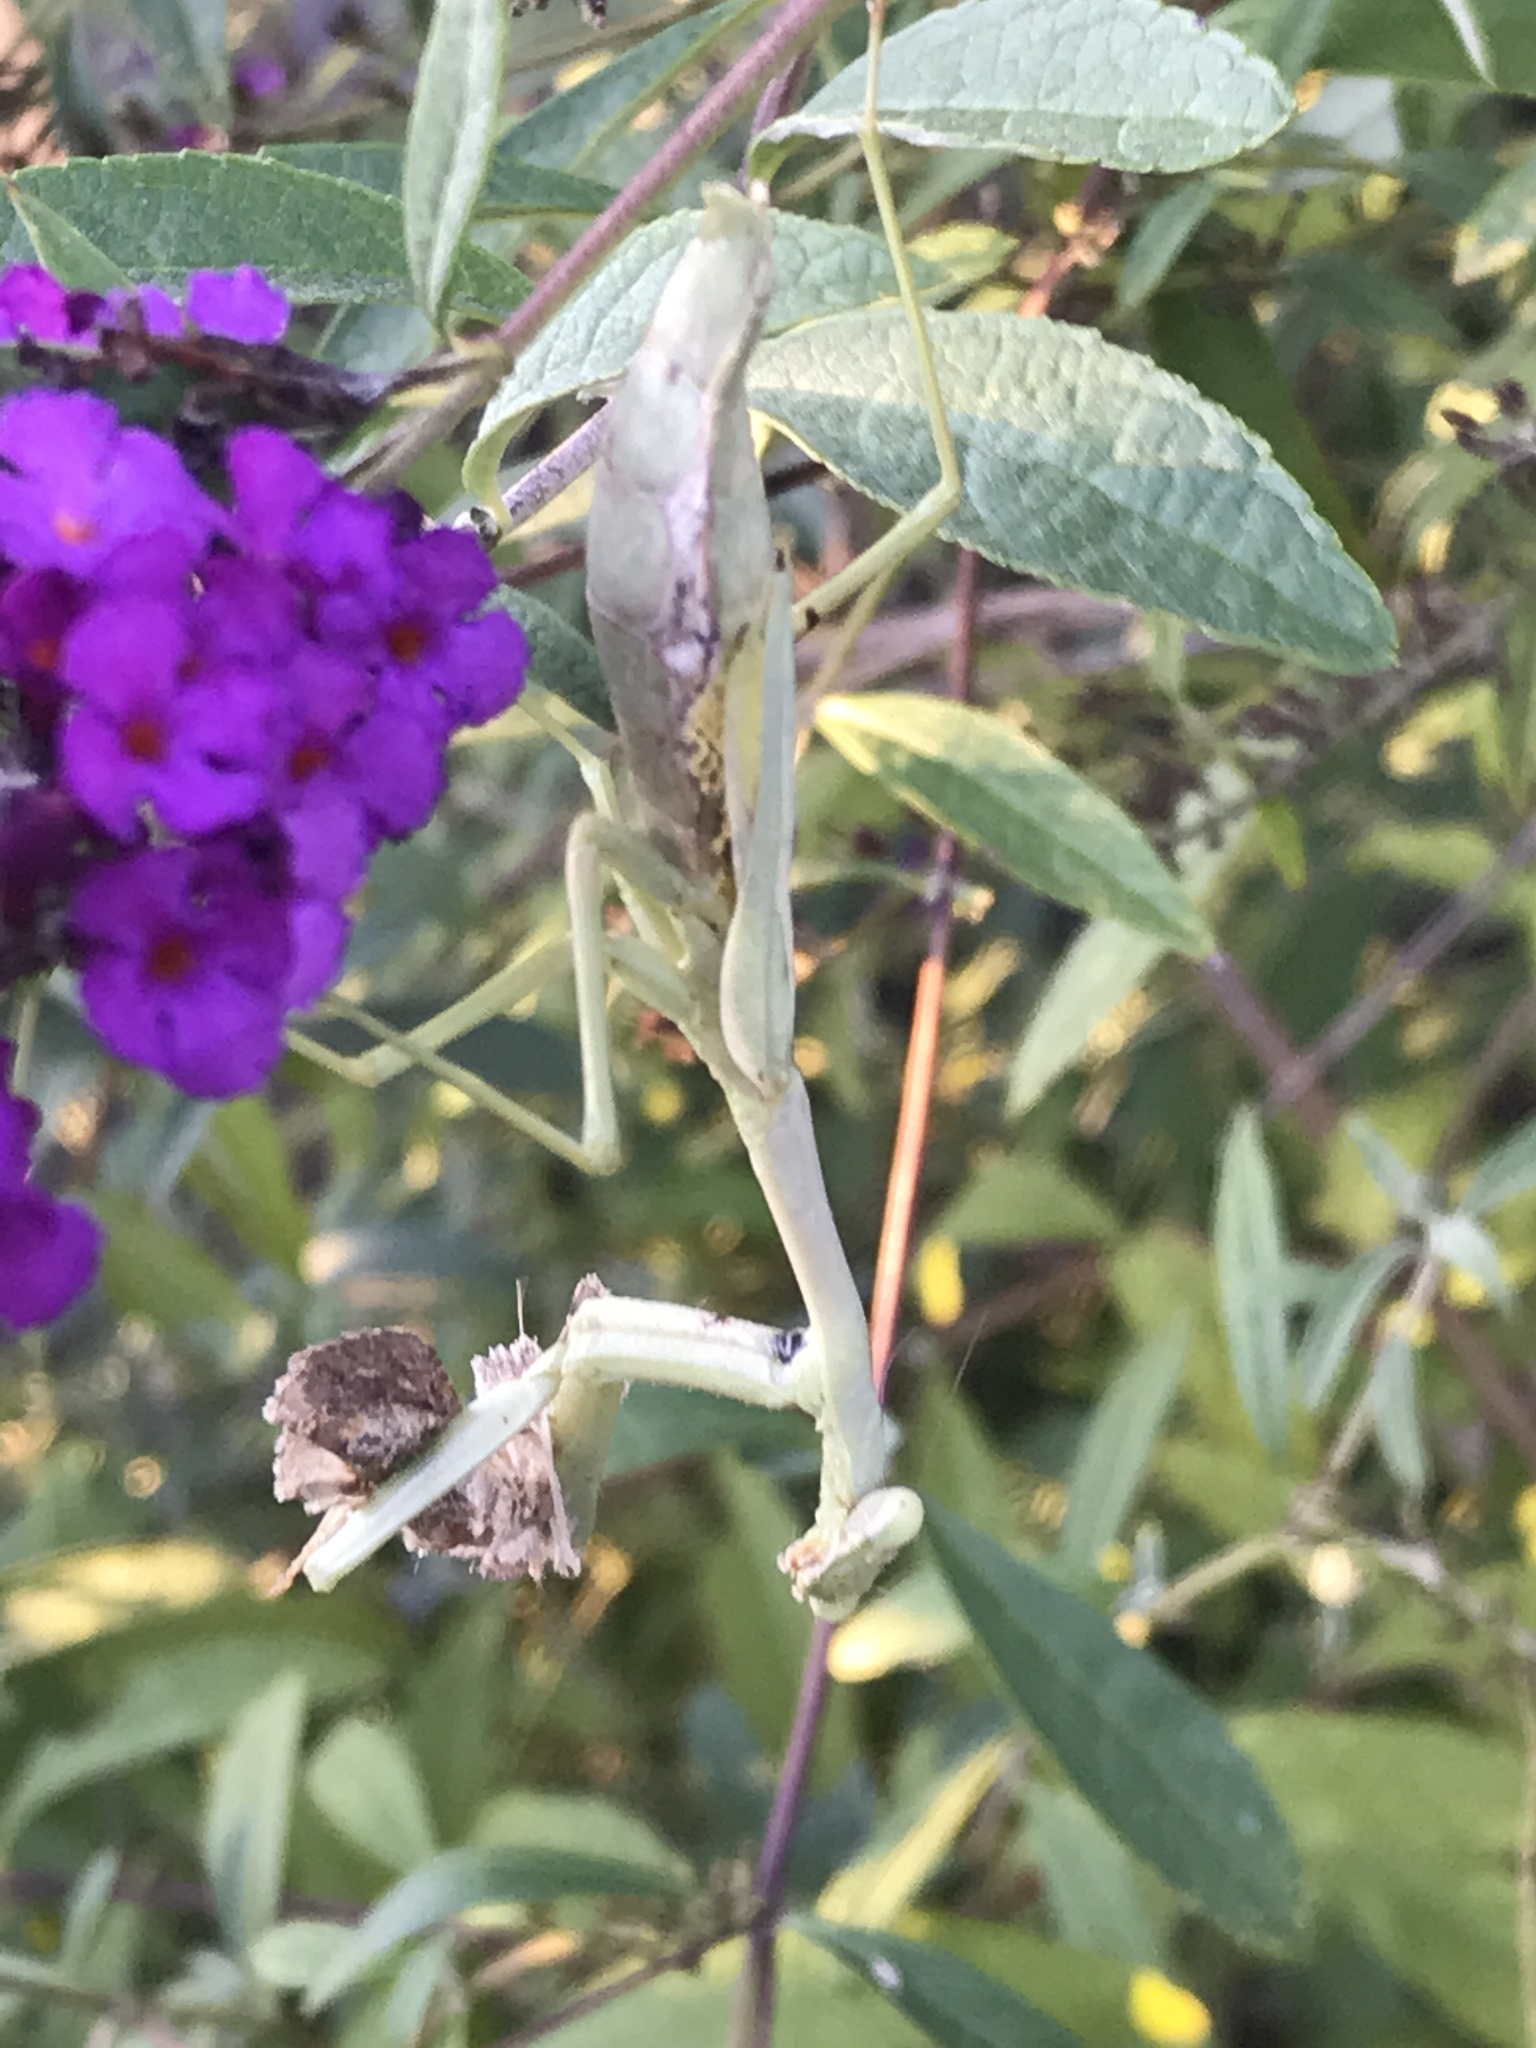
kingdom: Animalia
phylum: Arthropoda
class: Insecta
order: Mantodea
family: Mantidae
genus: Stagmomantis
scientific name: Stagmomantis carolina
